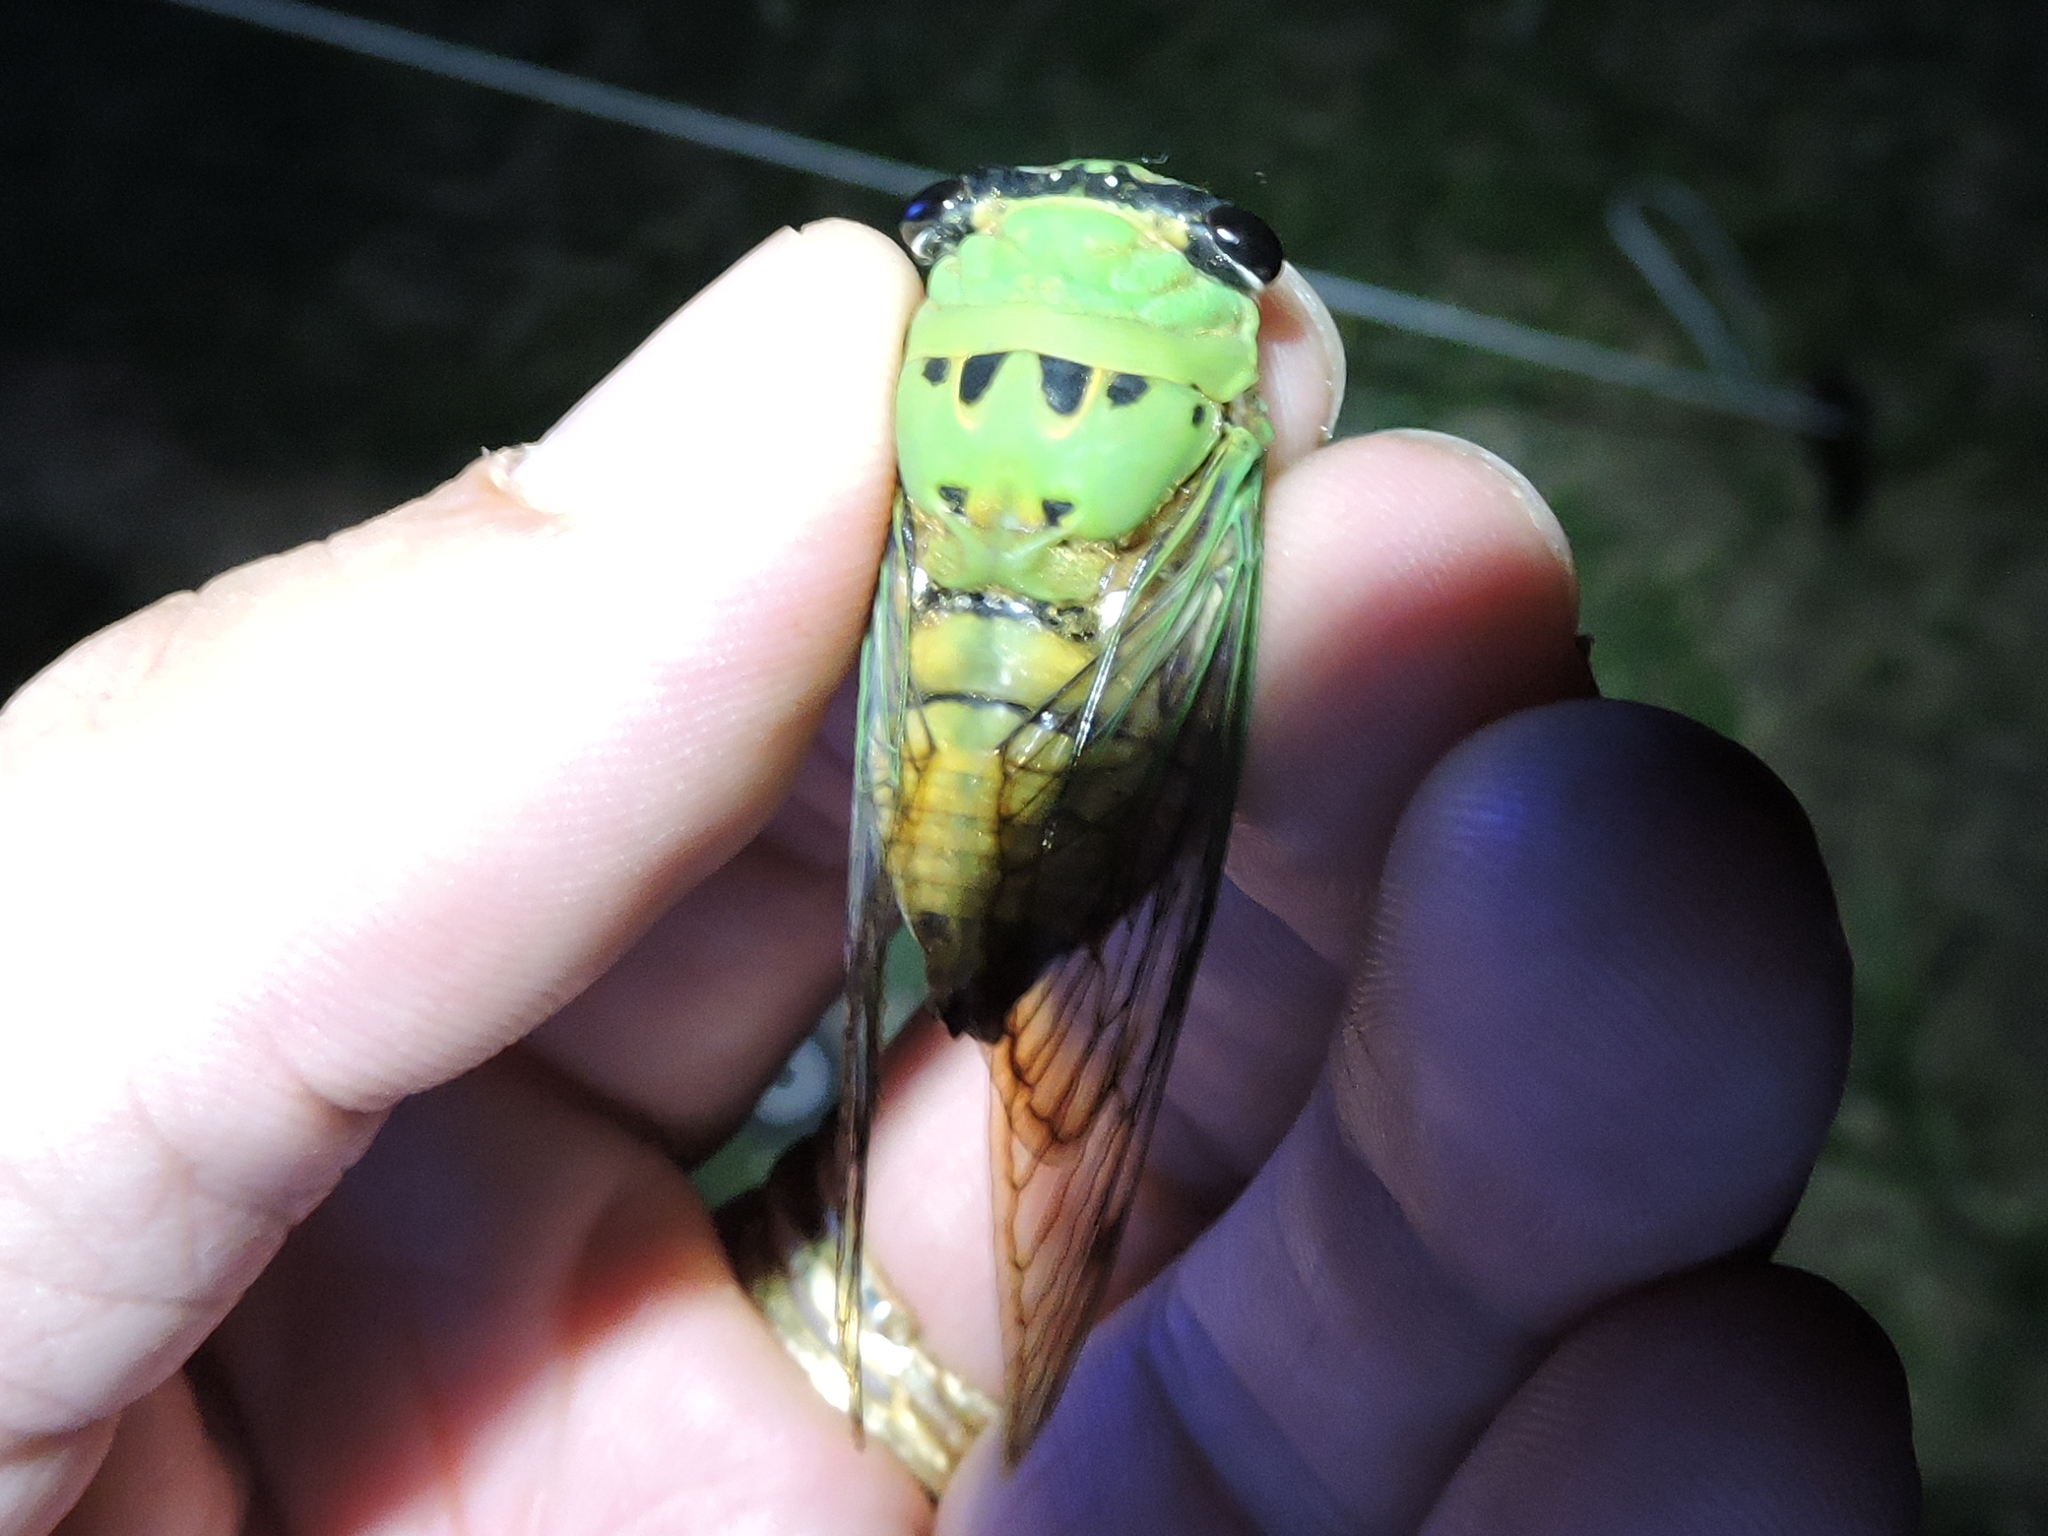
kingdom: Animalia
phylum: Arthropoda
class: Insecta
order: Hemiptera
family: Cicadidae
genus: Neotibicen
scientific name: Neotibicen superbus
